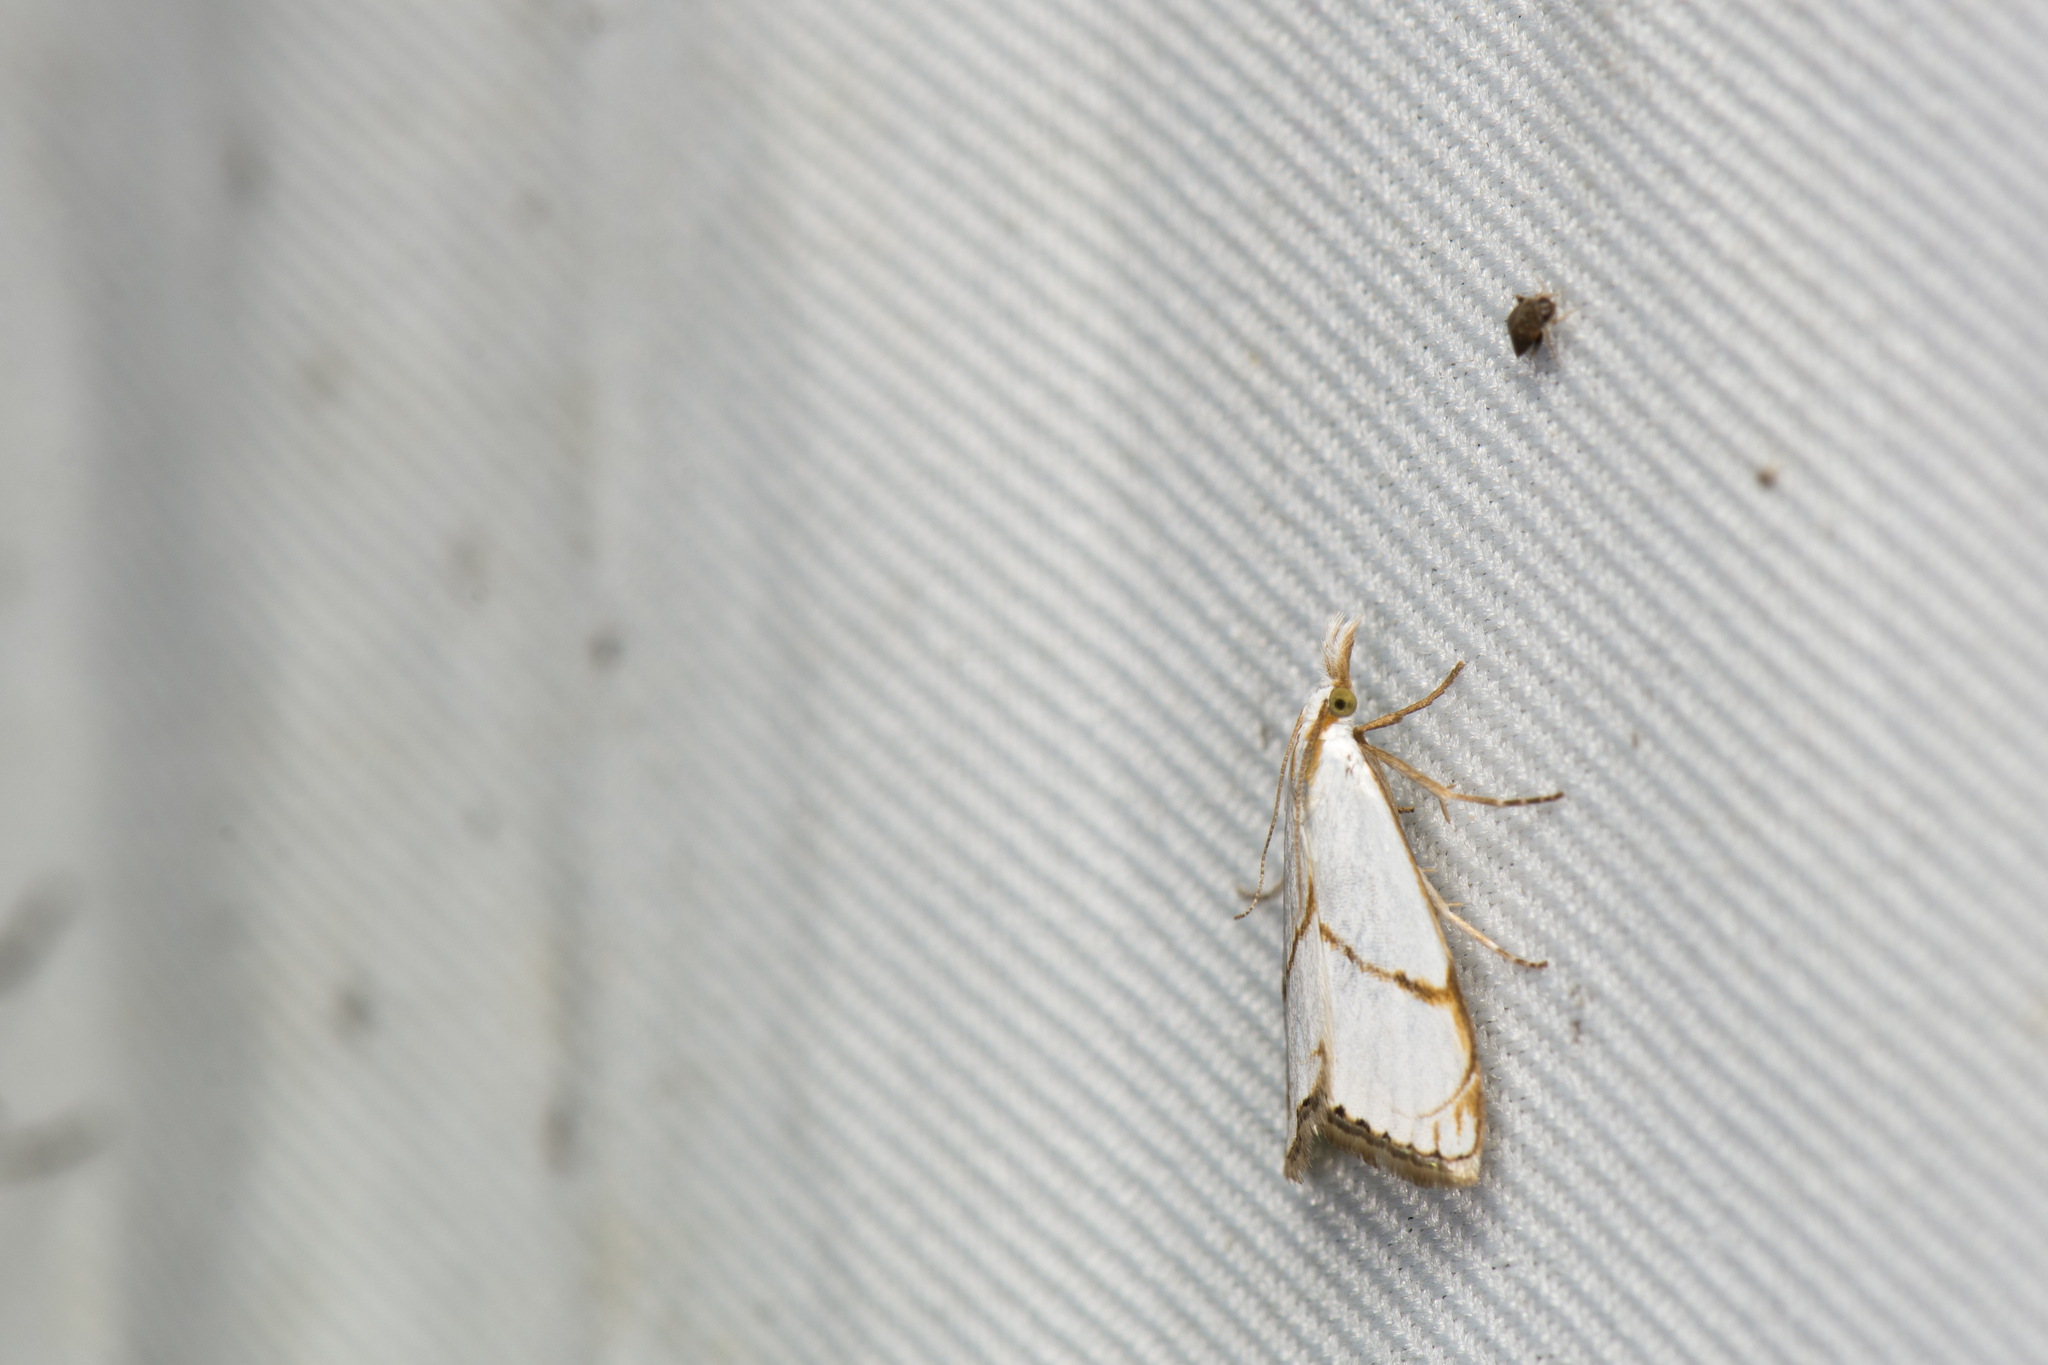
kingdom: Animalia
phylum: Arthropoda
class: Insecta
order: Lepidoptera
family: Crambidae
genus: Pseudargyria
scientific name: Pseudargyria interruptella
